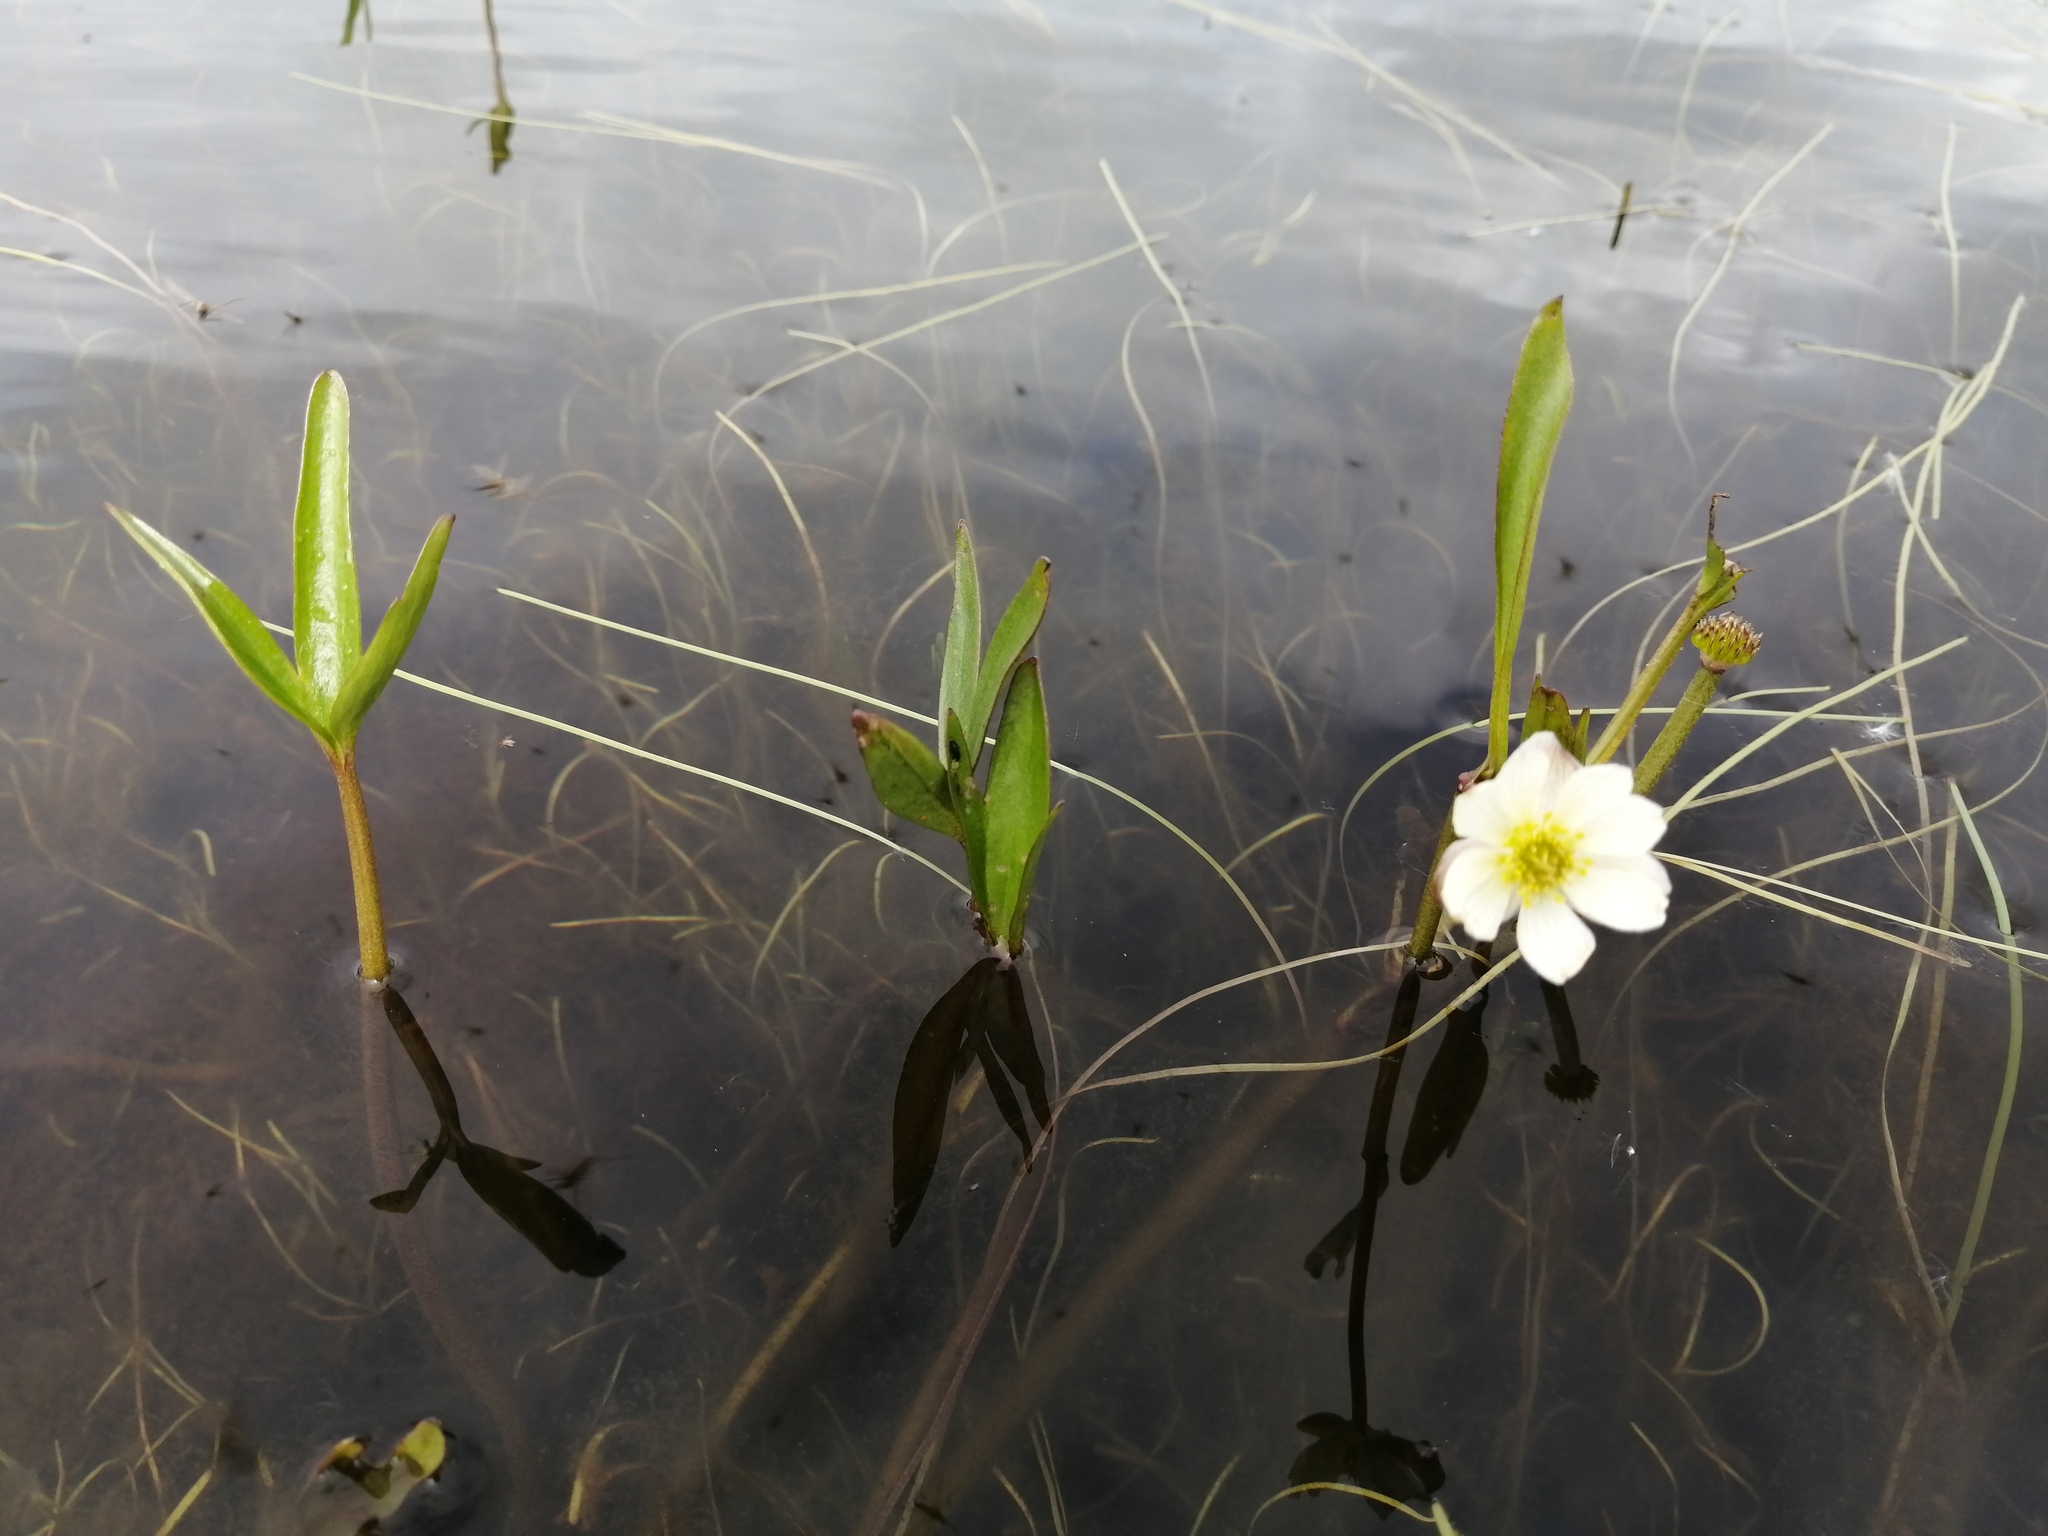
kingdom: Plantae
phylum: Tracheophyta
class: Magnoliopsida
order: Ranunculales
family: Ranunculaceae
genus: Coptidium
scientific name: Coptidium pallasii
